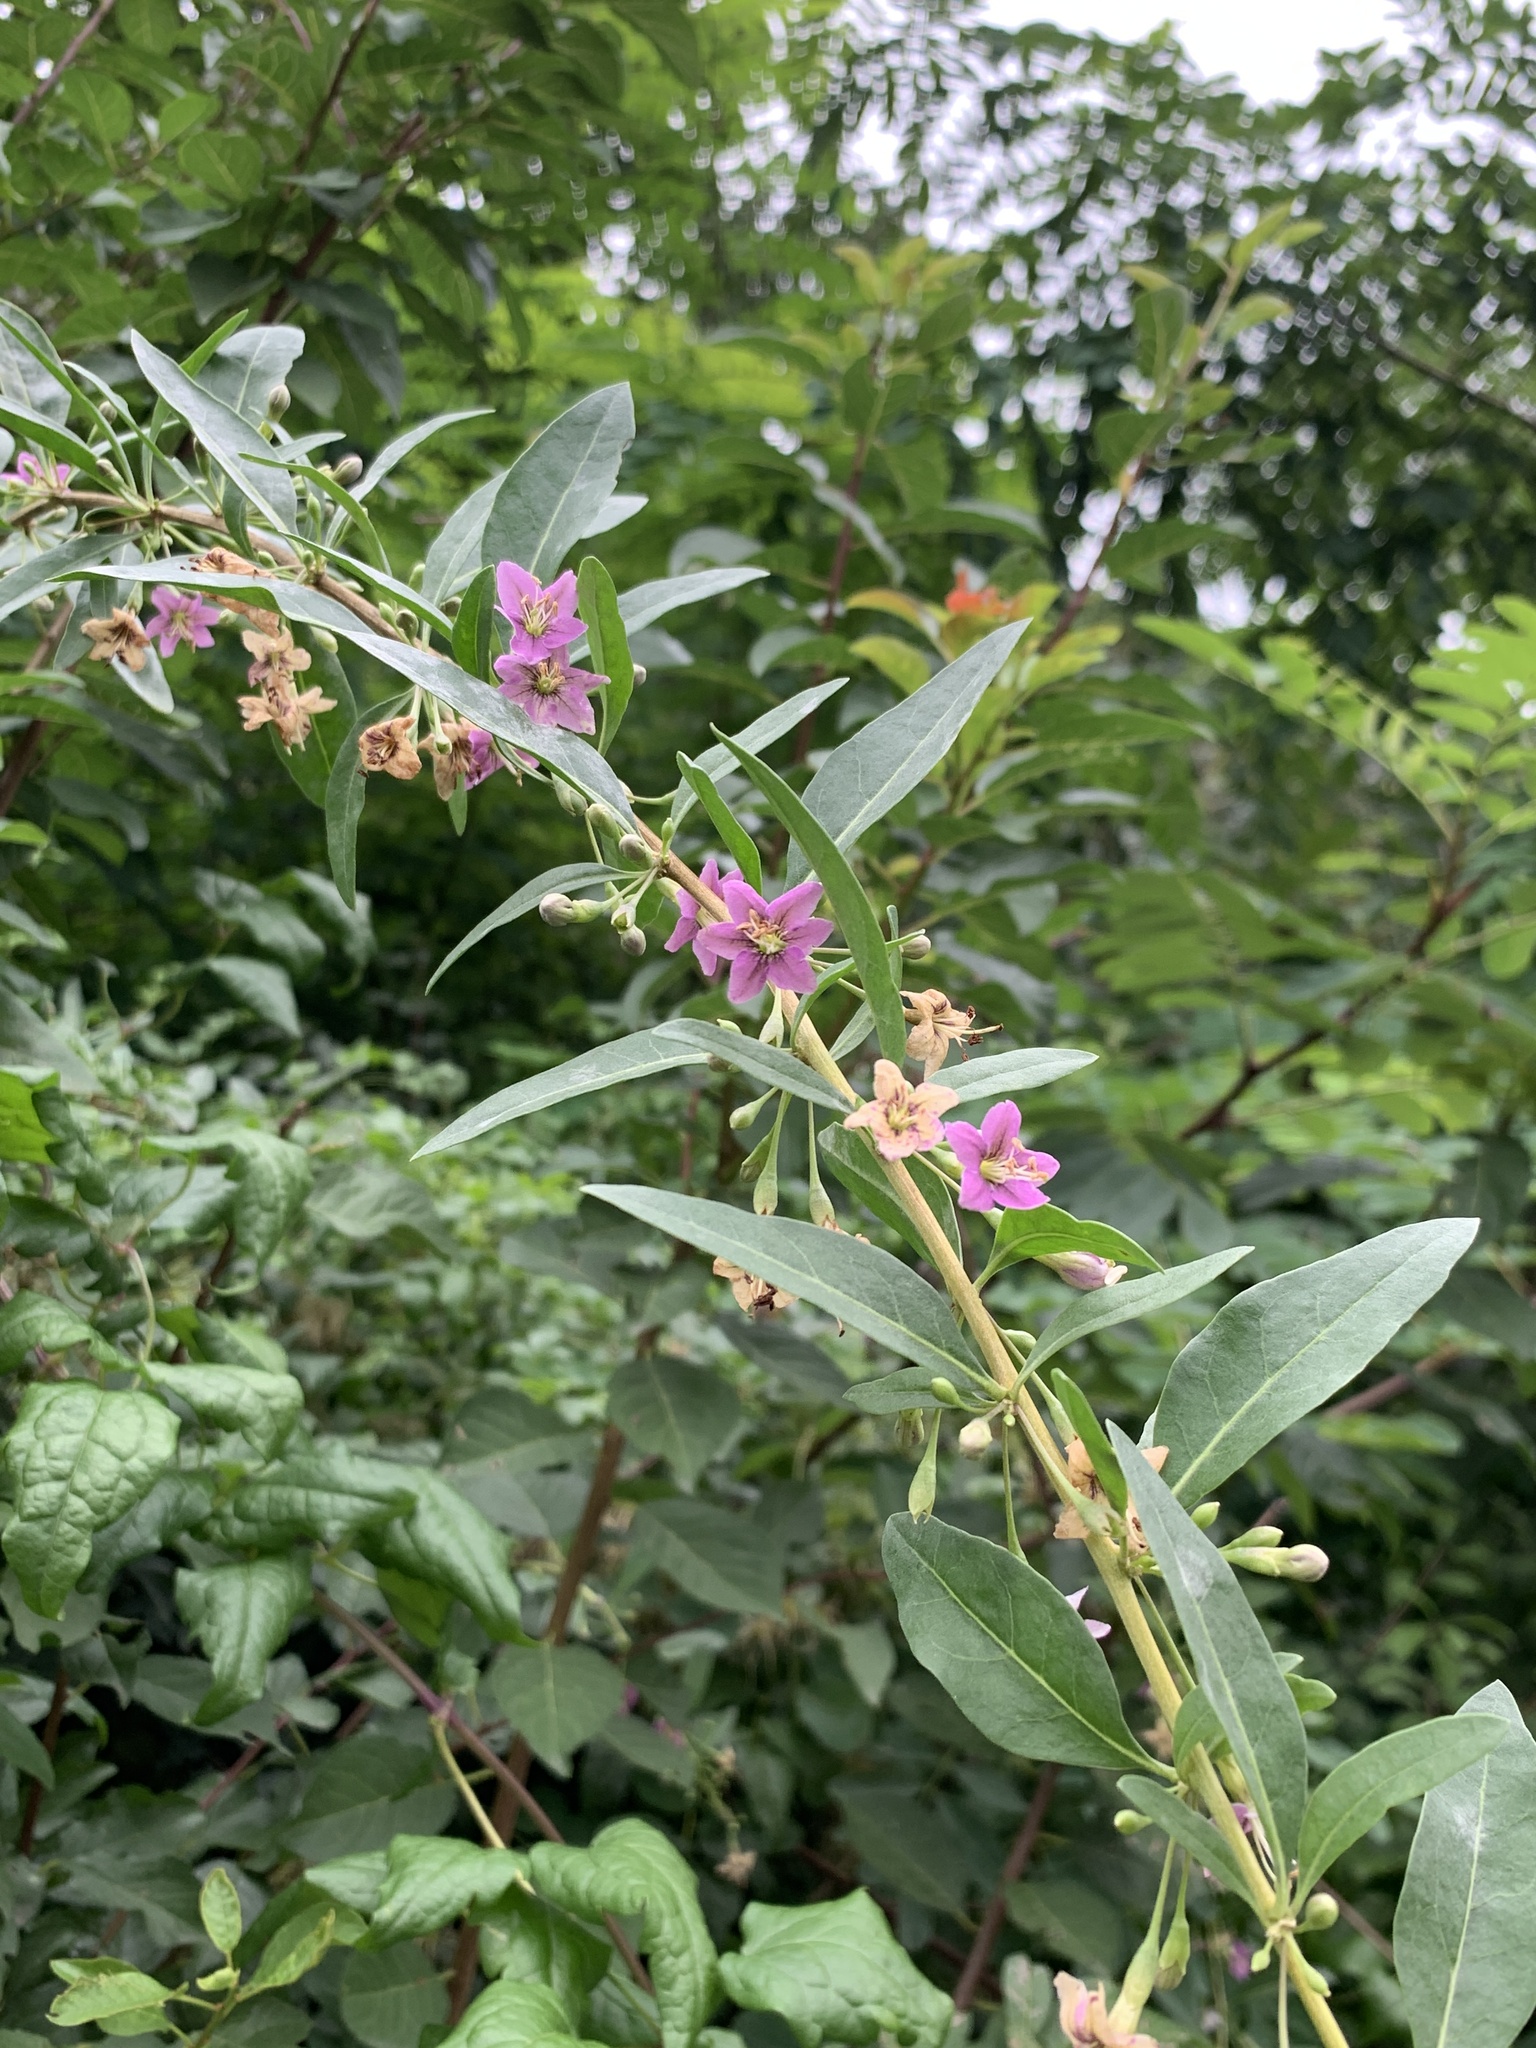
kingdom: Plantae
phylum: Tracheophyta
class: Magnoliopsida
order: Solanales
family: Solanaceae
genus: Lycium
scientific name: Lycium barbarum
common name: Duke of argyll's teaplant
